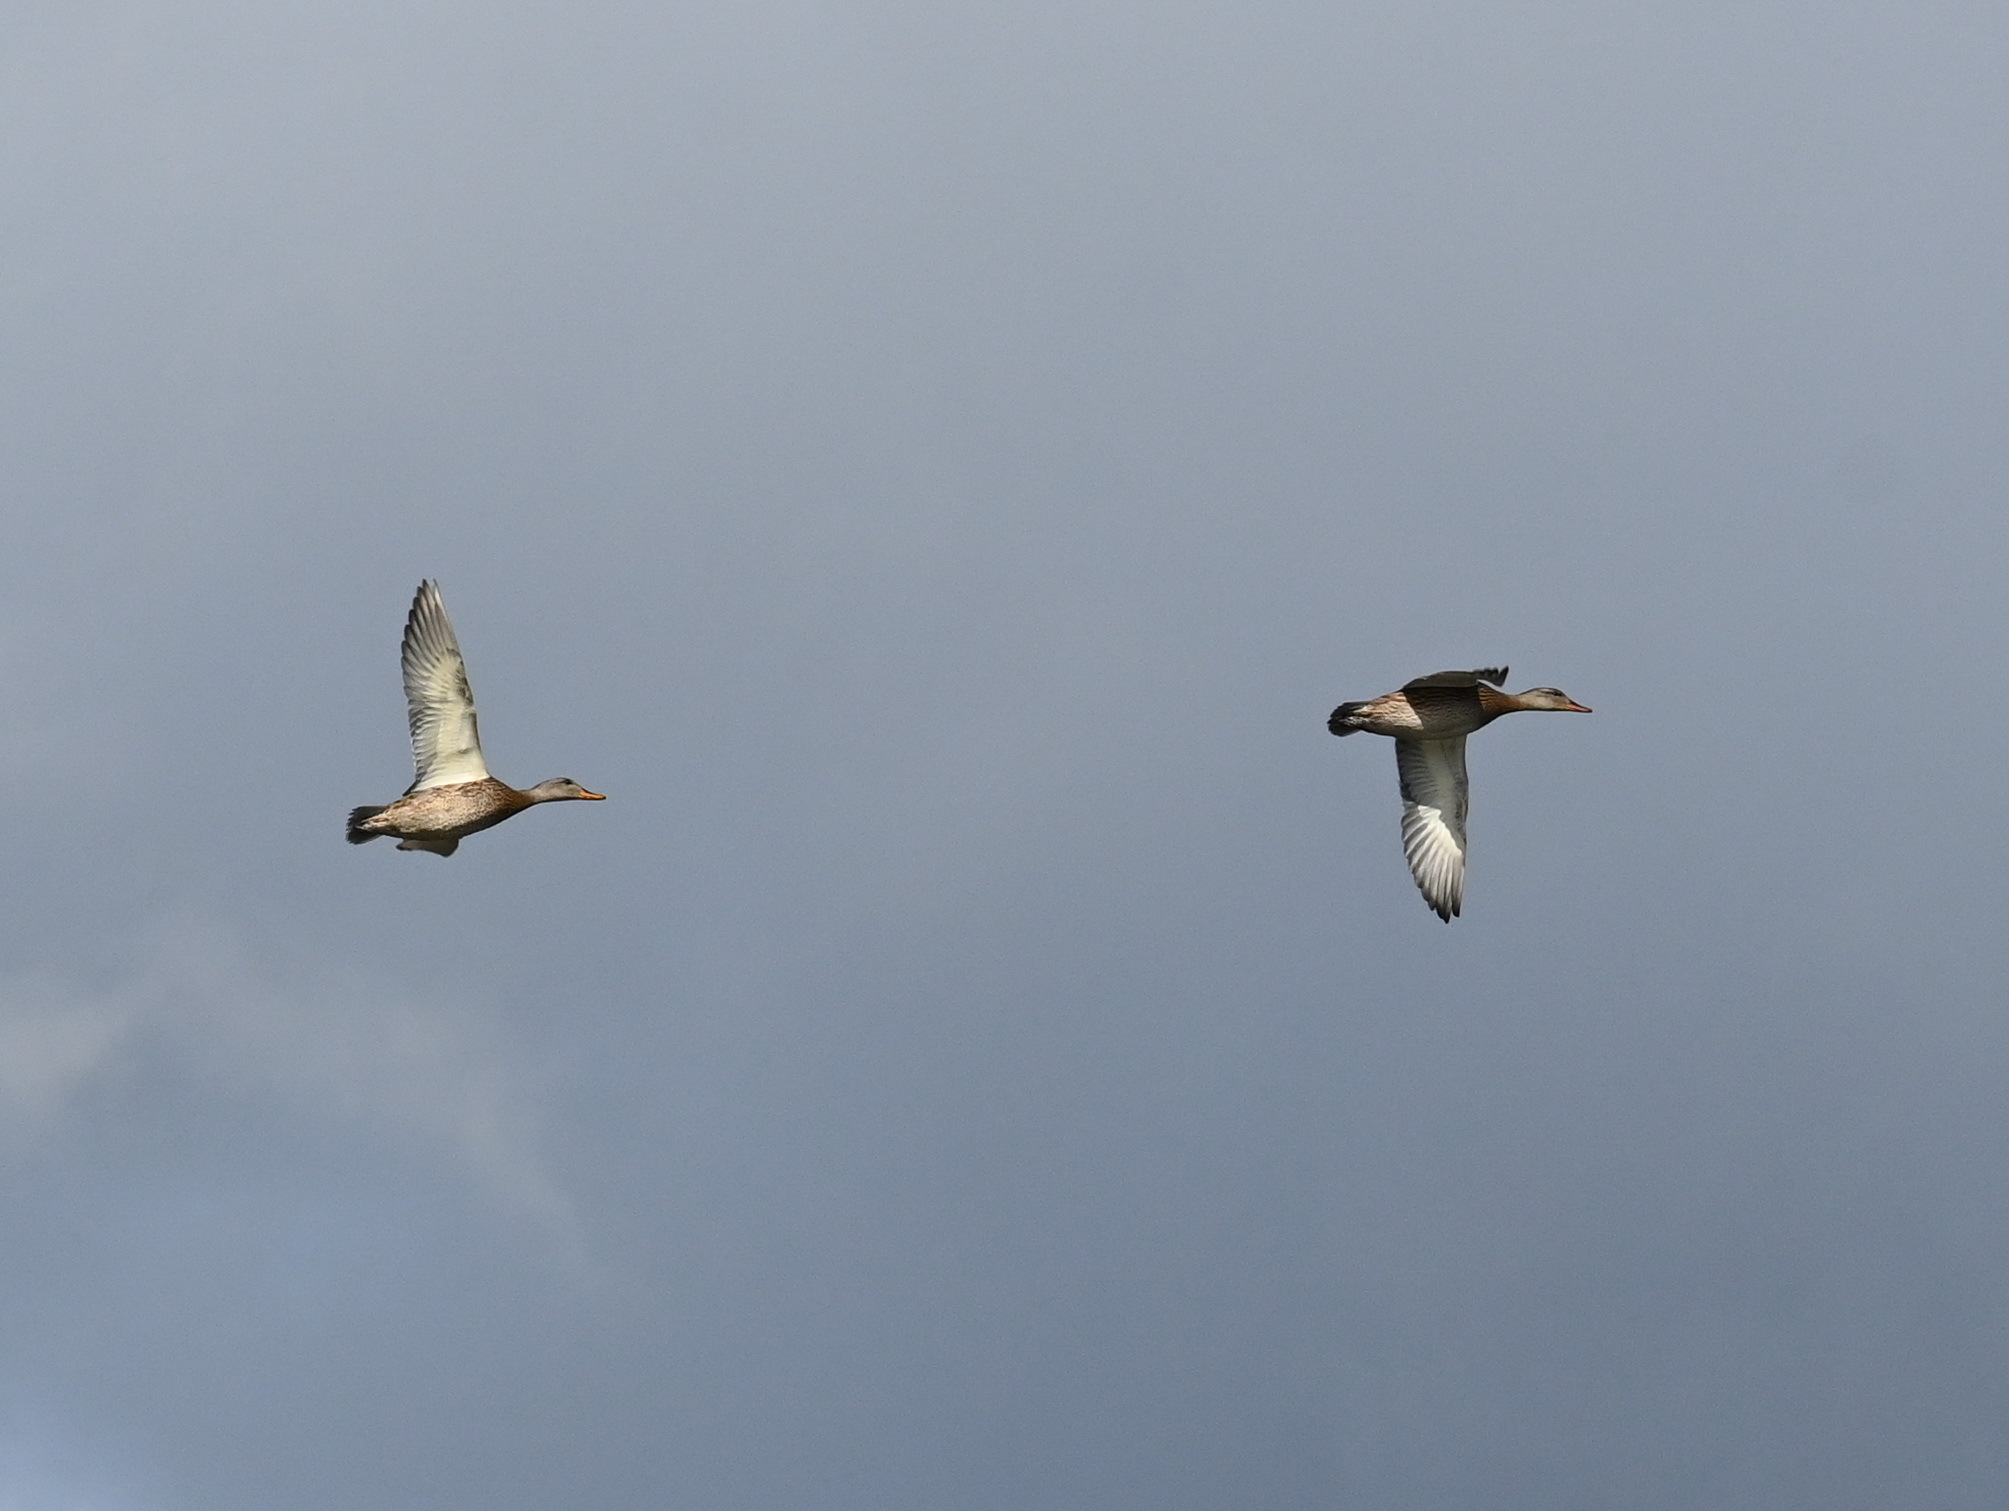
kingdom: Animalia
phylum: Chordata
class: Aves
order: Anseriformes
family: Anatidae
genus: Mareca
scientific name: Mareca strepera
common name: Gadwall
